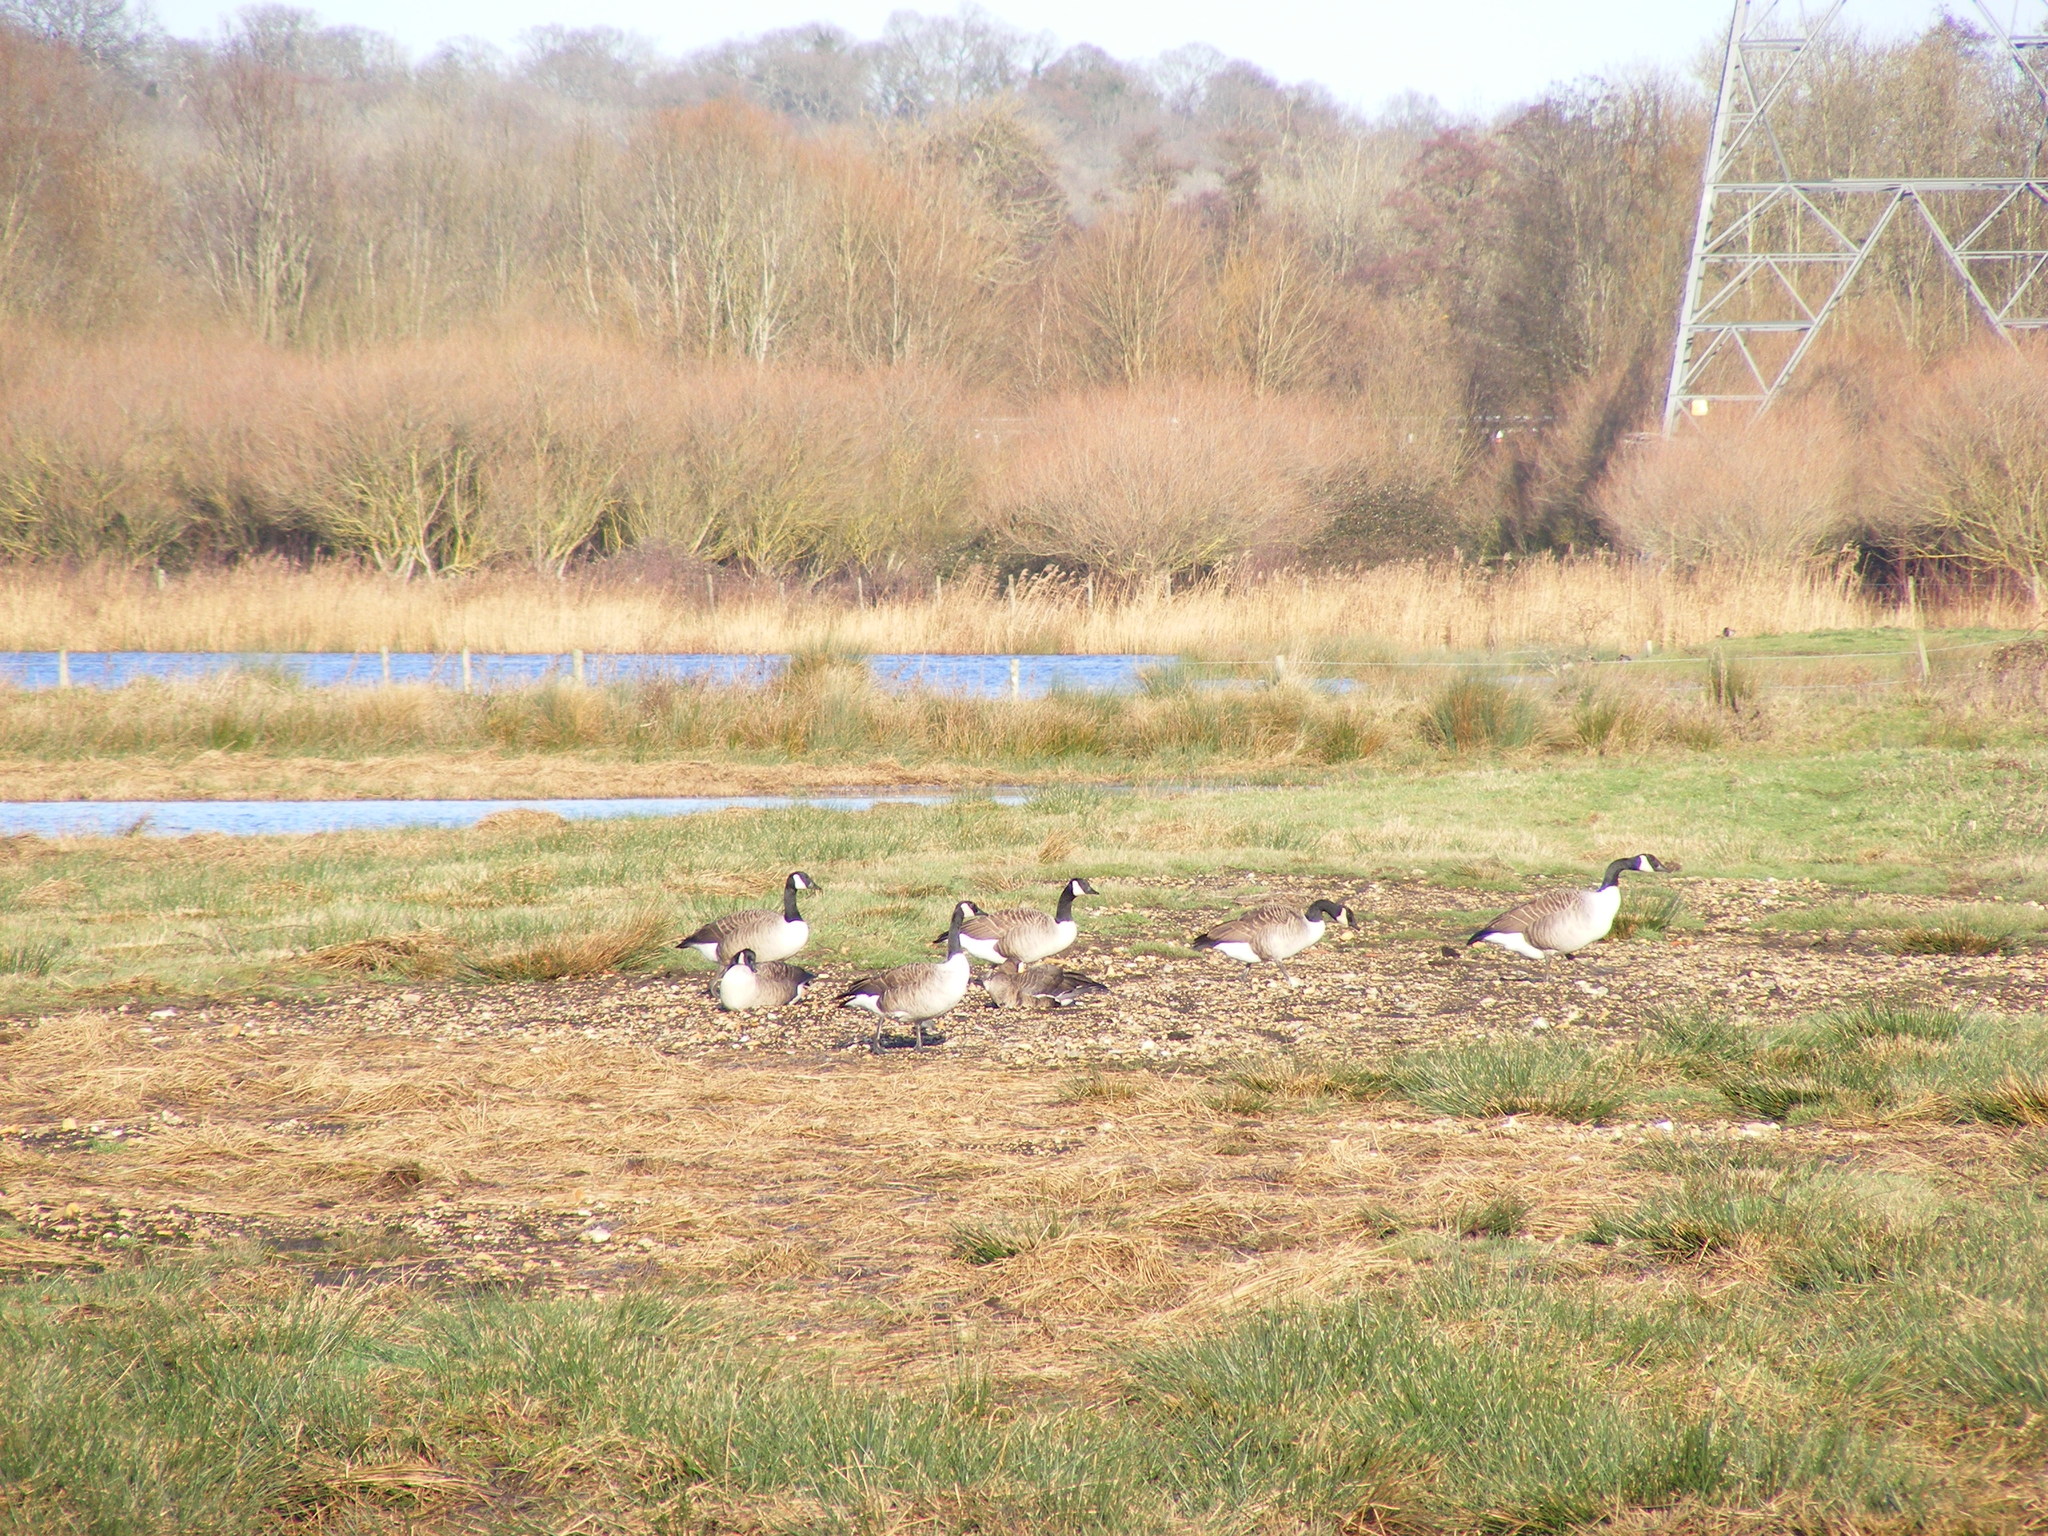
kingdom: Animalia
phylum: Chordata
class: Aves
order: Anseriformes
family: Anatidae
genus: Branta
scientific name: Branta canadensis
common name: Canada goose
